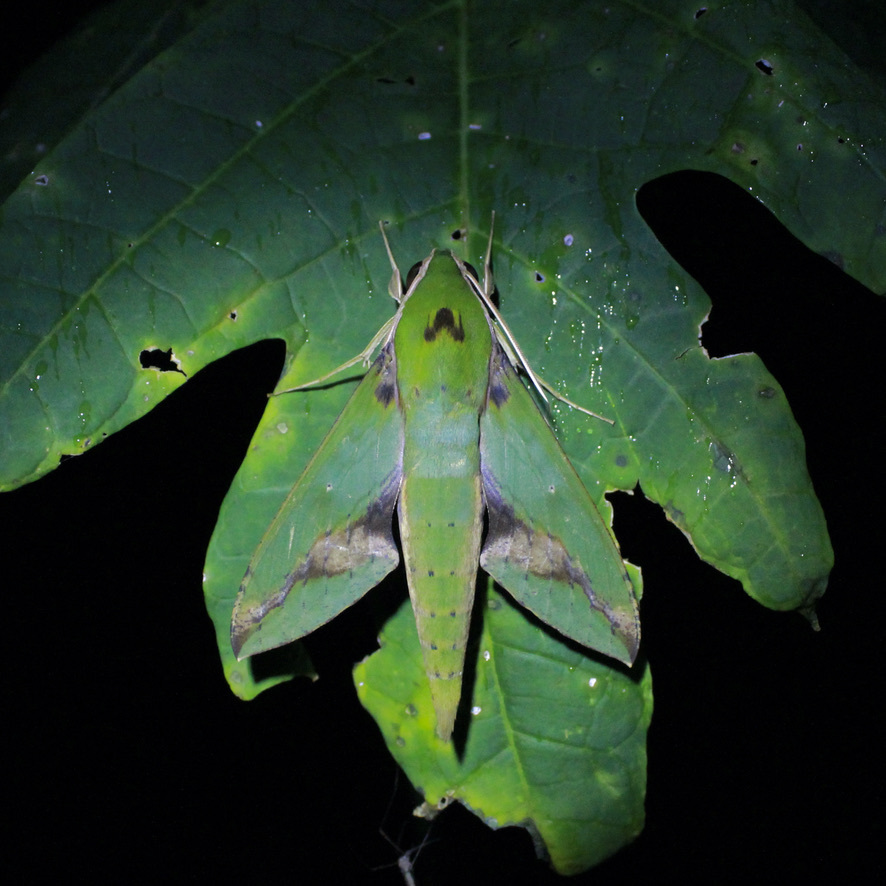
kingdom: Animalia
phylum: Arthropoda
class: Insecta
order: Lepidoptera
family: Sphingidae
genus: Xylophanes
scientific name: Xylophanes chiron
